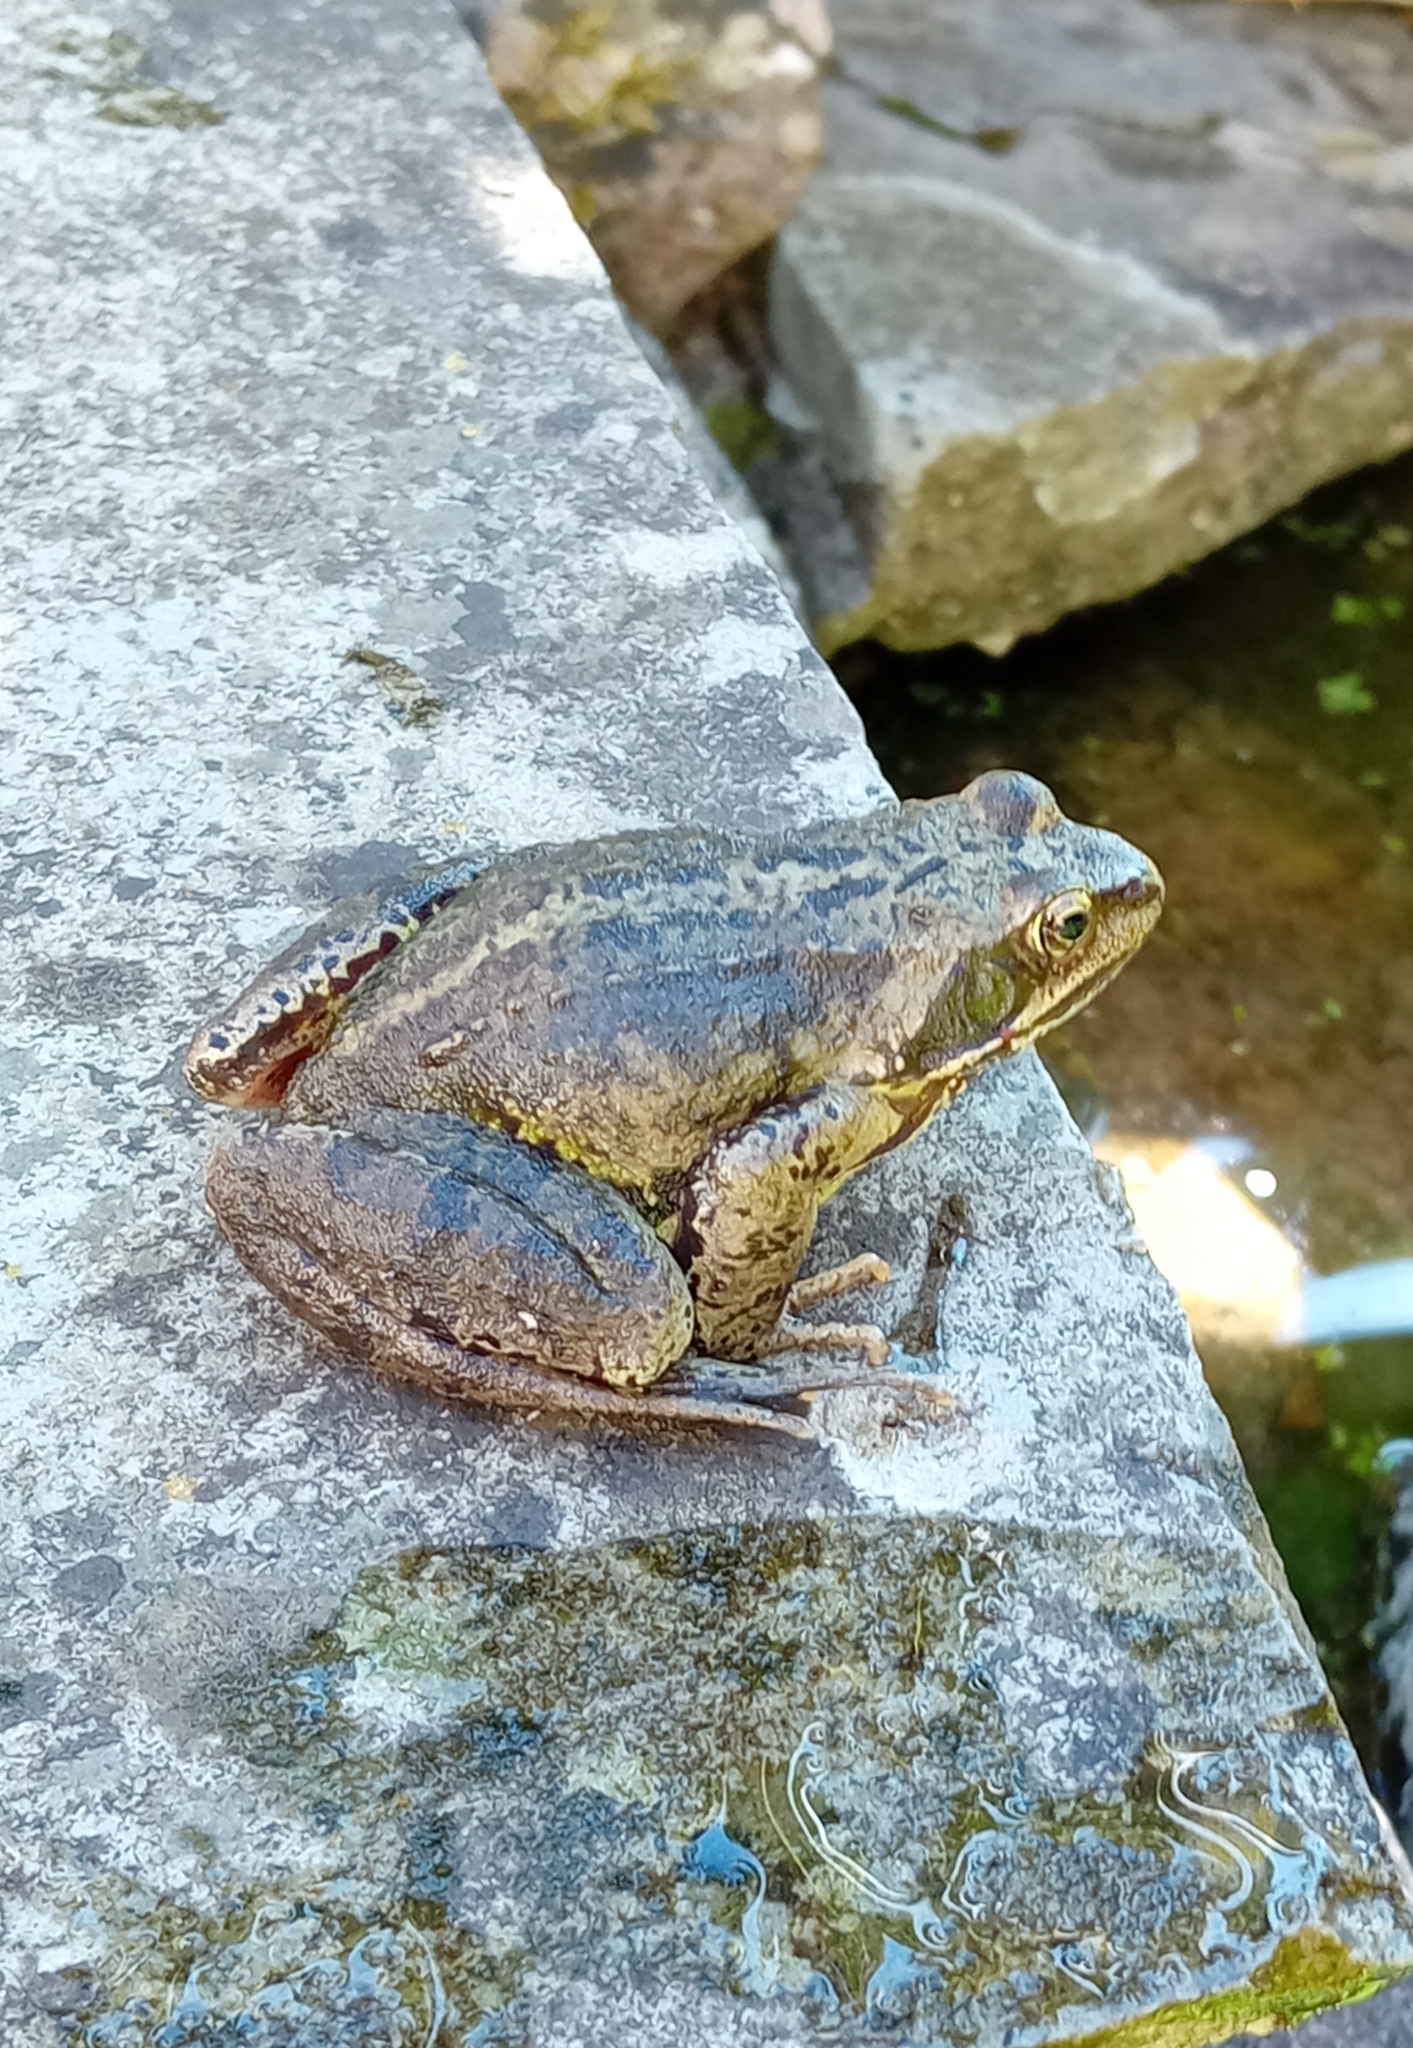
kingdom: Animalia
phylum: Chordata
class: Amphibia
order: Anura
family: Ranidae
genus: Rana
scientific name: Rana temporaria
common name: Common frog
